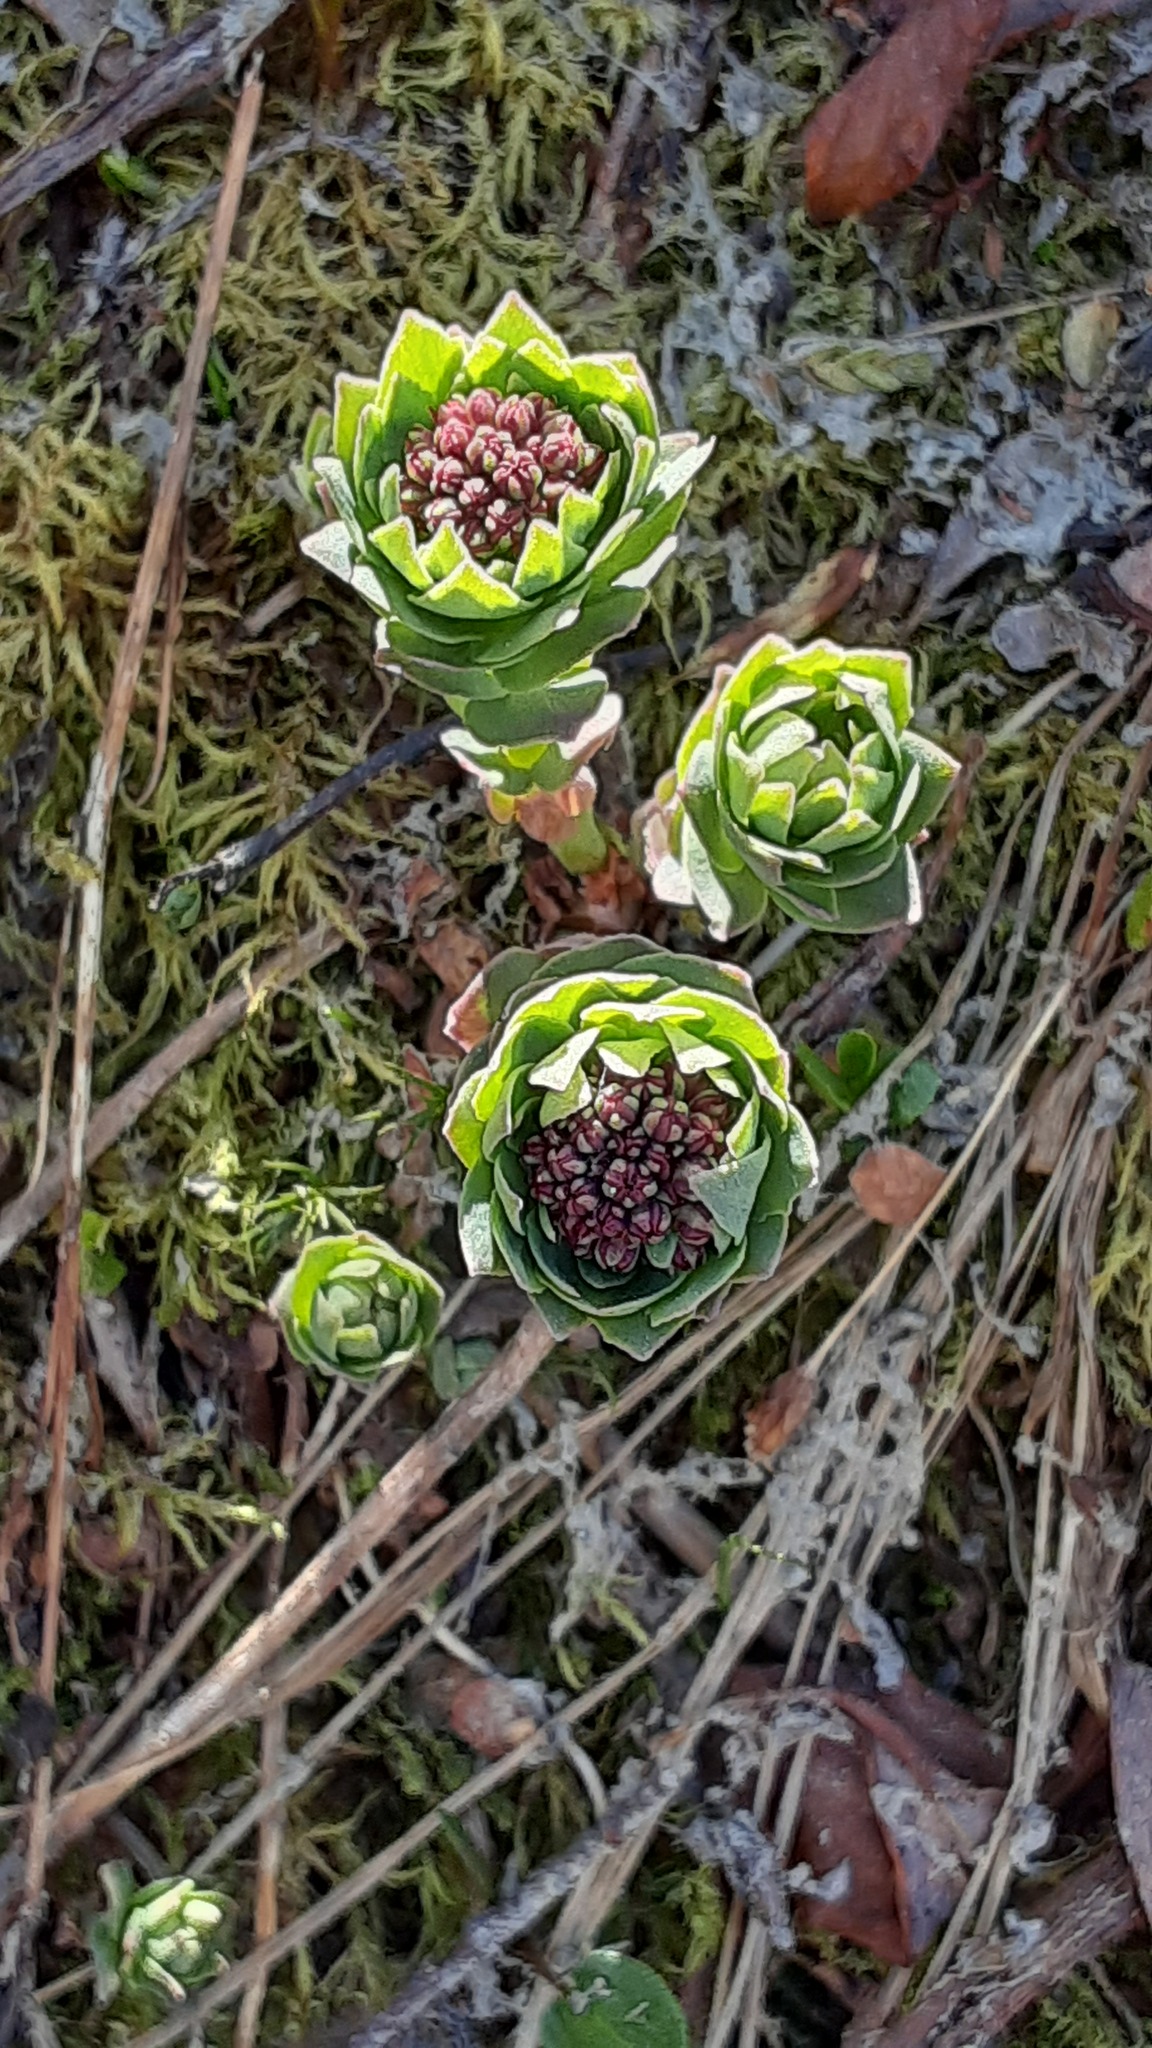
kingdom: Plantae
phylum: Tracheophyta
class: Magnoliopsida
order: Saxifragales
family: Crassulaceae
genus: Rhodiola
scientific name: Rhodiola integrifolia
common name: Western roseroot
